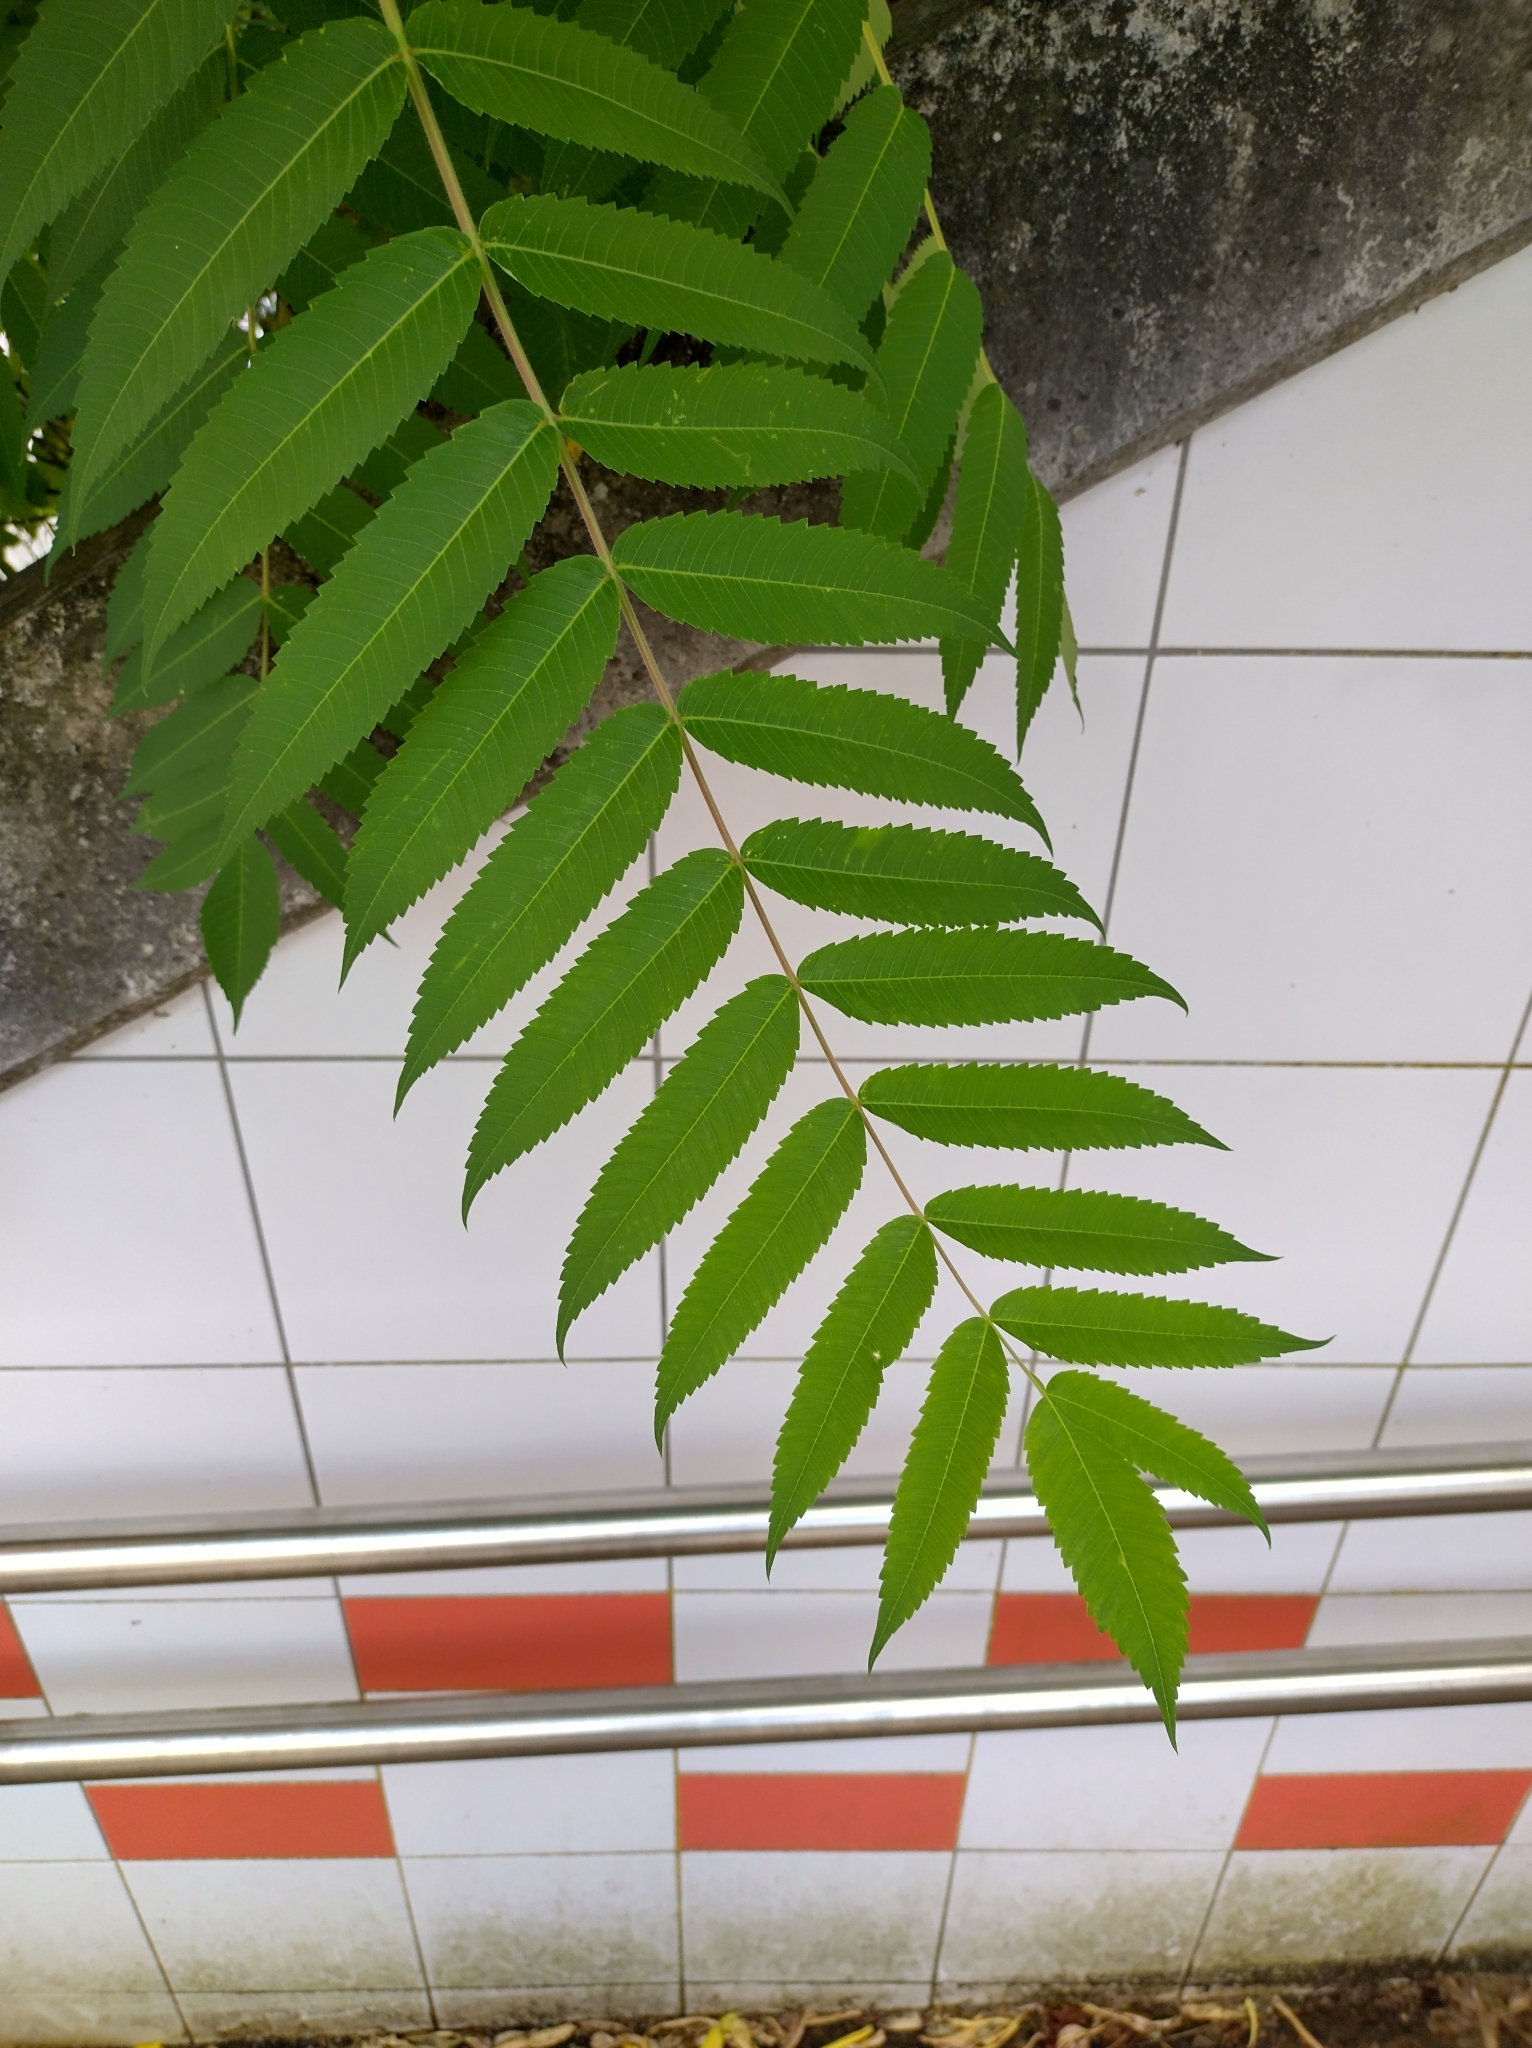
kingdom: Plantae
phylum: Tracheophyta
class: Magnoliopsida
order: Sapindales
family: Anacardiaceae
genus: Rhus
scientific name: Rhus typhina
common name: Staghorn sumac
